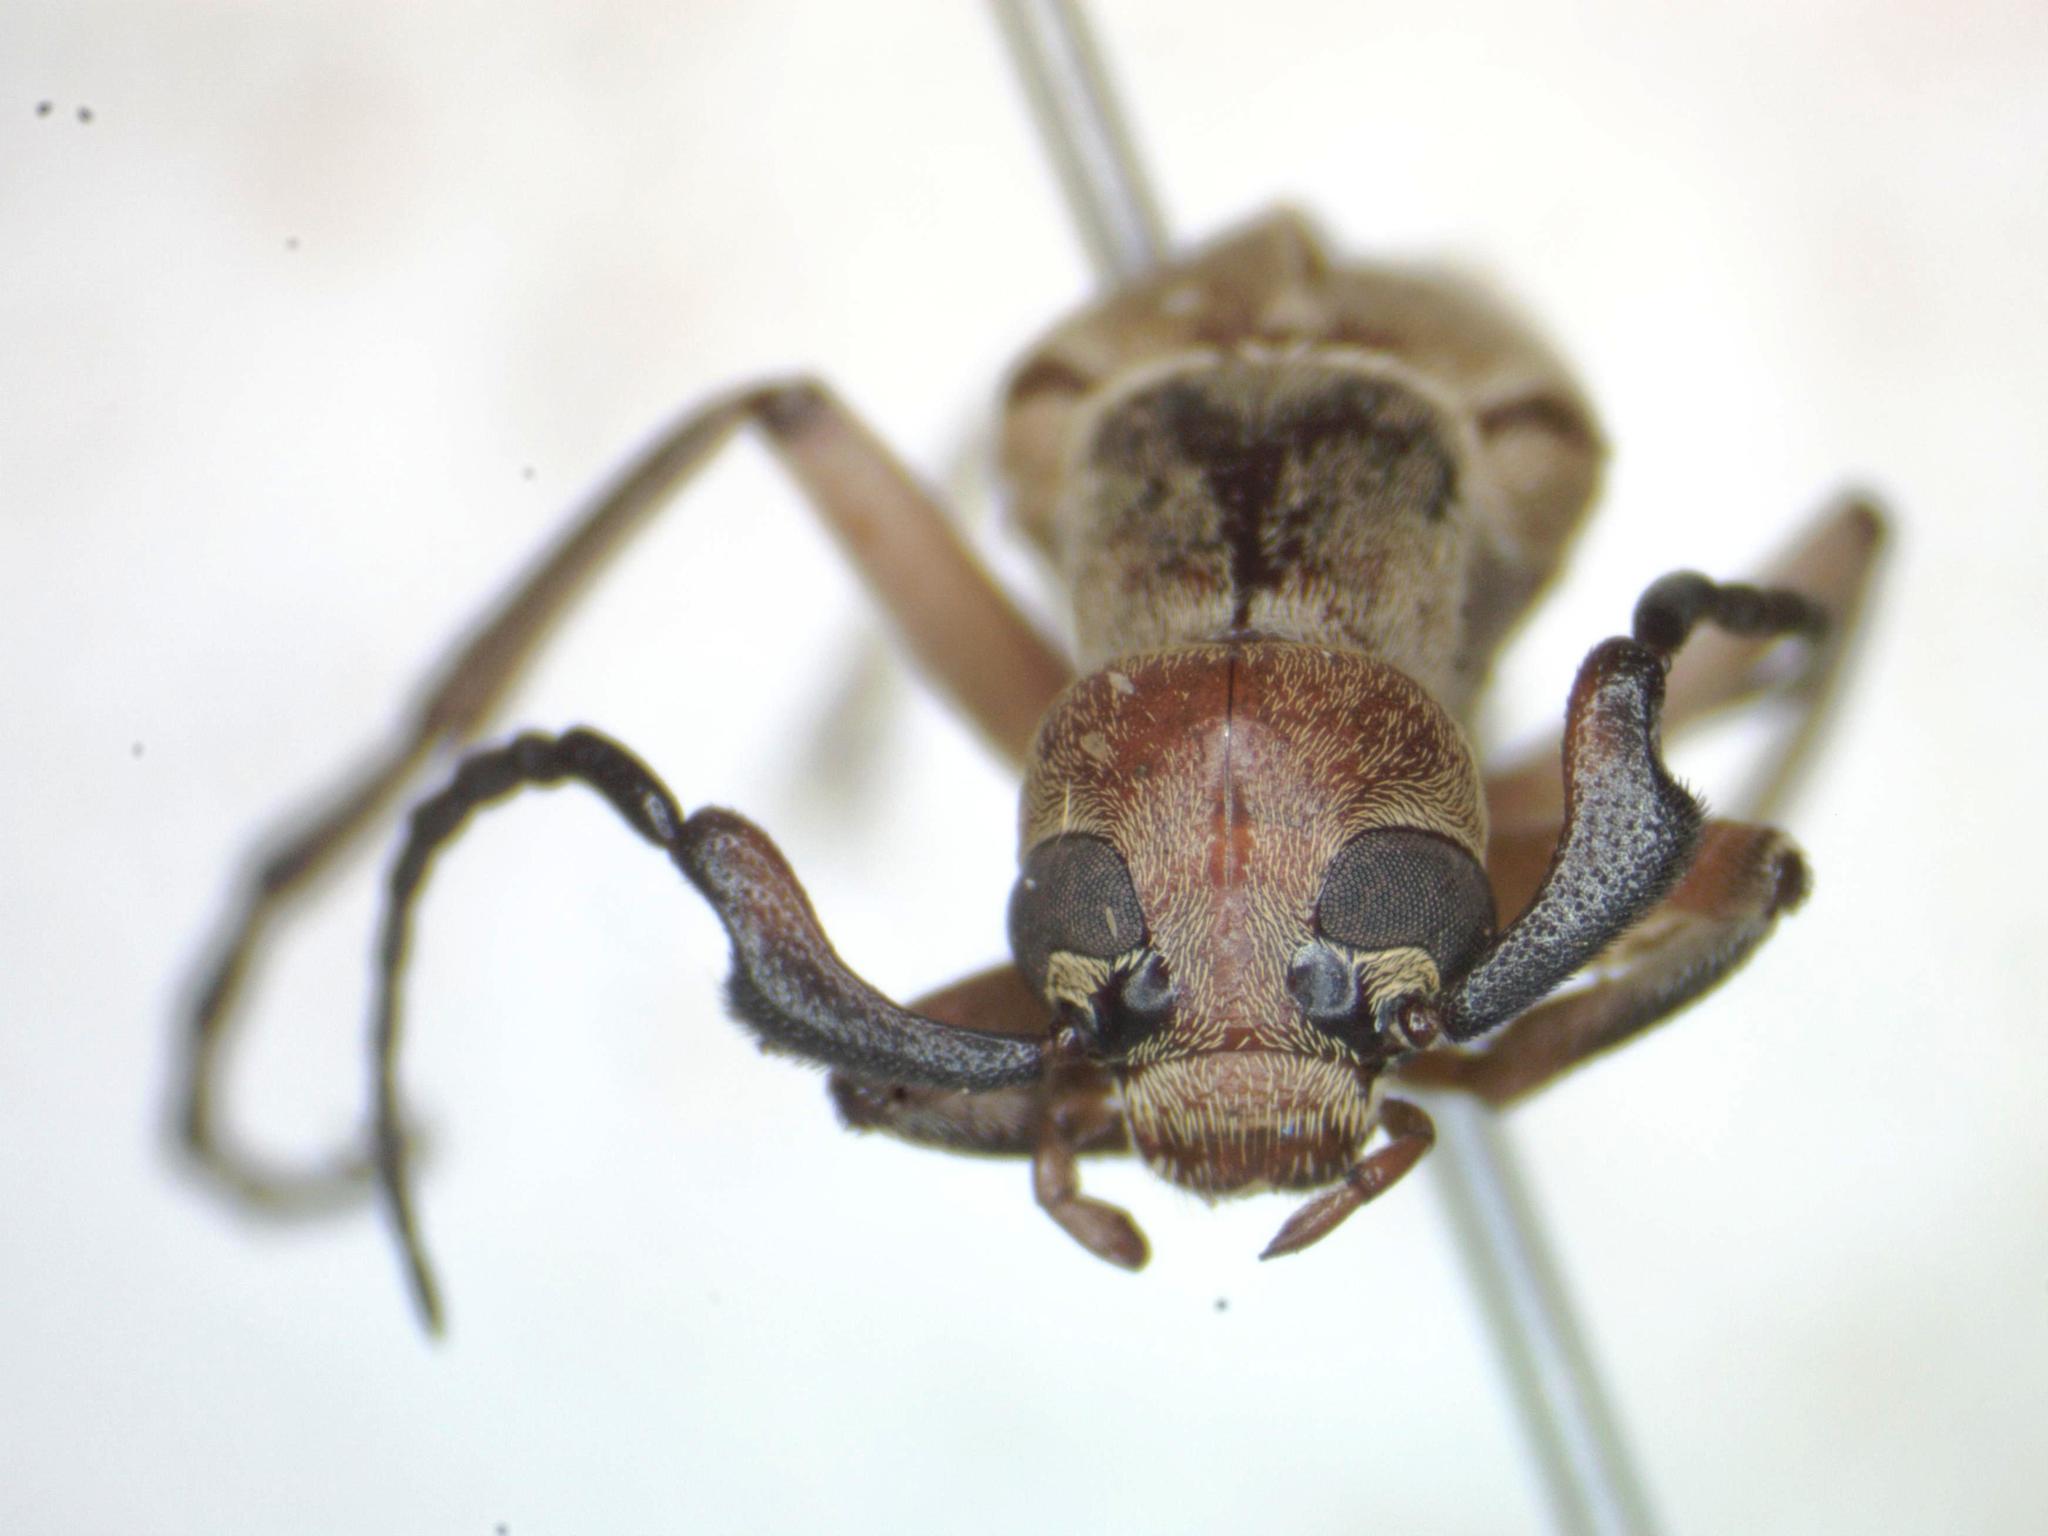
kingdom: Animalia
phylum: Arthropoda
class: Insecta
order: Coleoptera
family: Meloidae
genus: Epicauta
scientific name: Epicauta distorta
